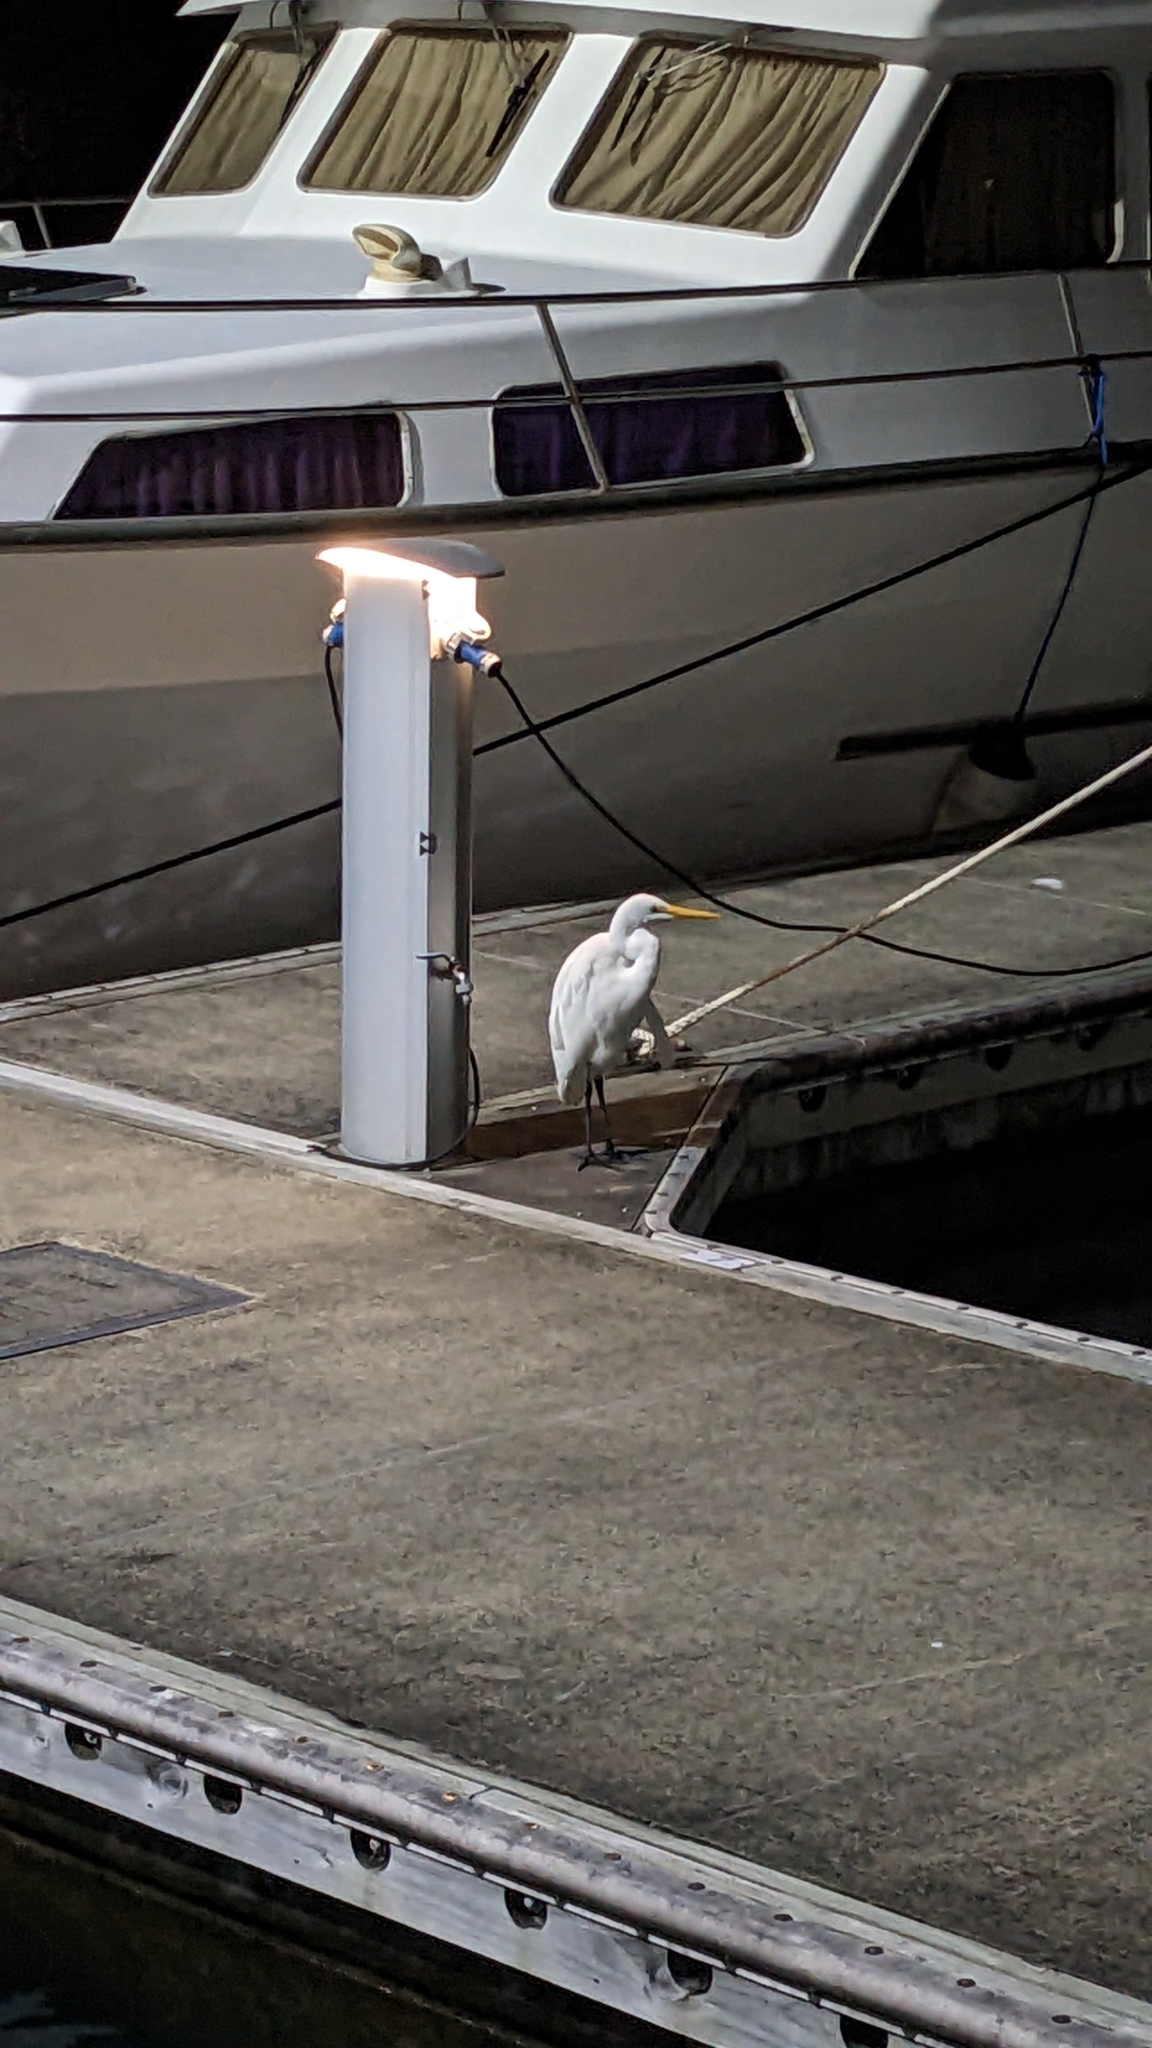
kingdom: Animalia
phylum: Chordata
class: Aves
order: Pelecaniformes
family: Ardeidae
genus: Ardea
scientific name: Ardea modesta
